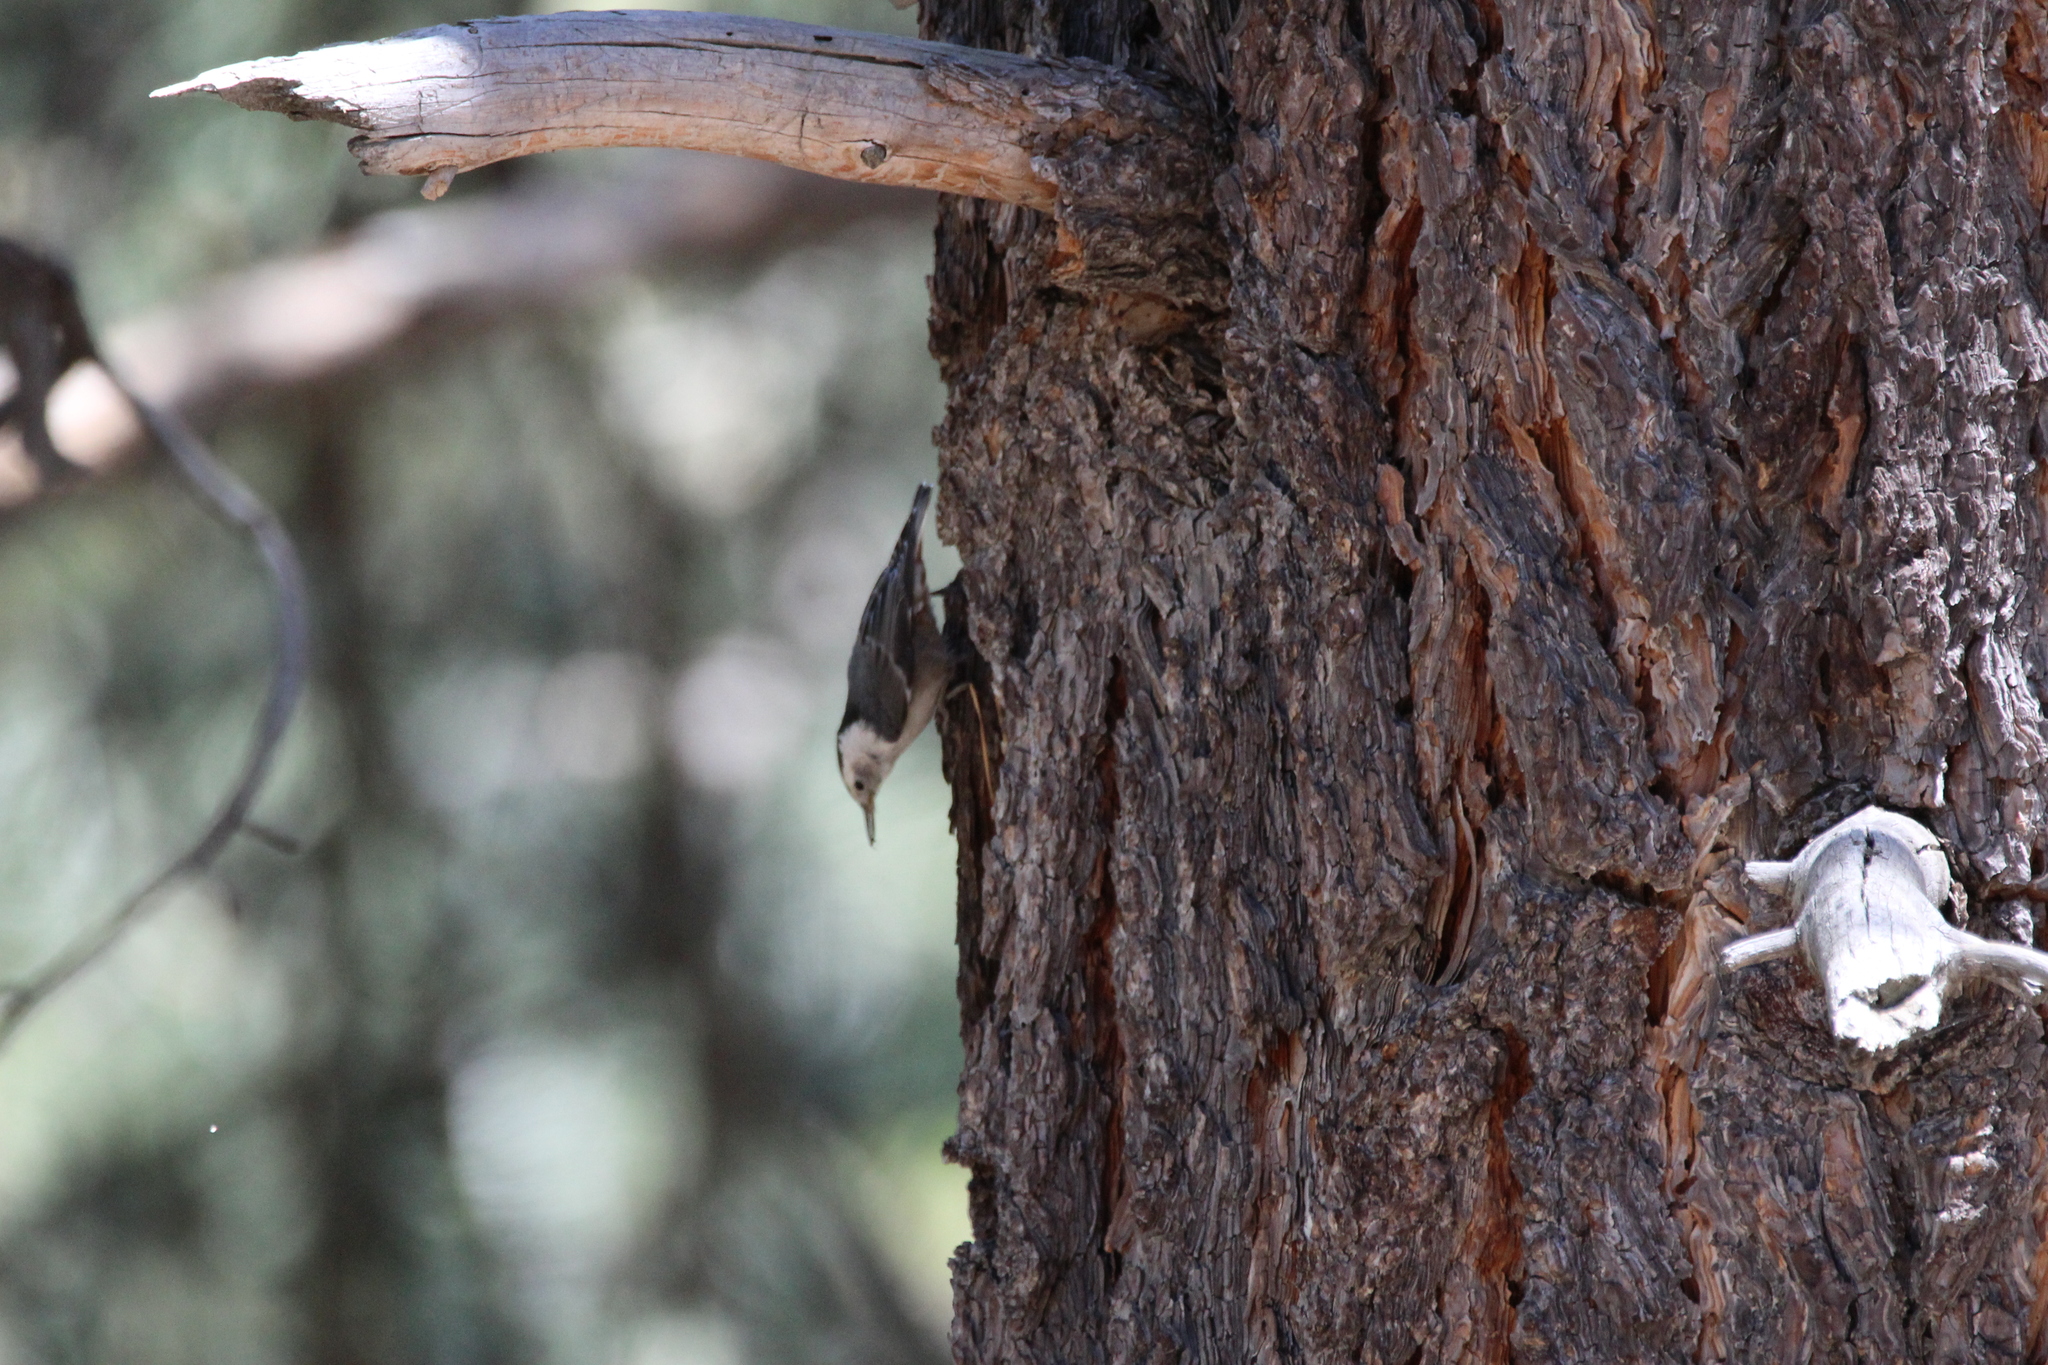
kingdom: Animalia
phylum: Chordata
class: Aves
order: Passeriformes
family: Sittidae
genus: Sitta
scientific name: Sitta carolinensis
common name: White-breasted nuthatch
